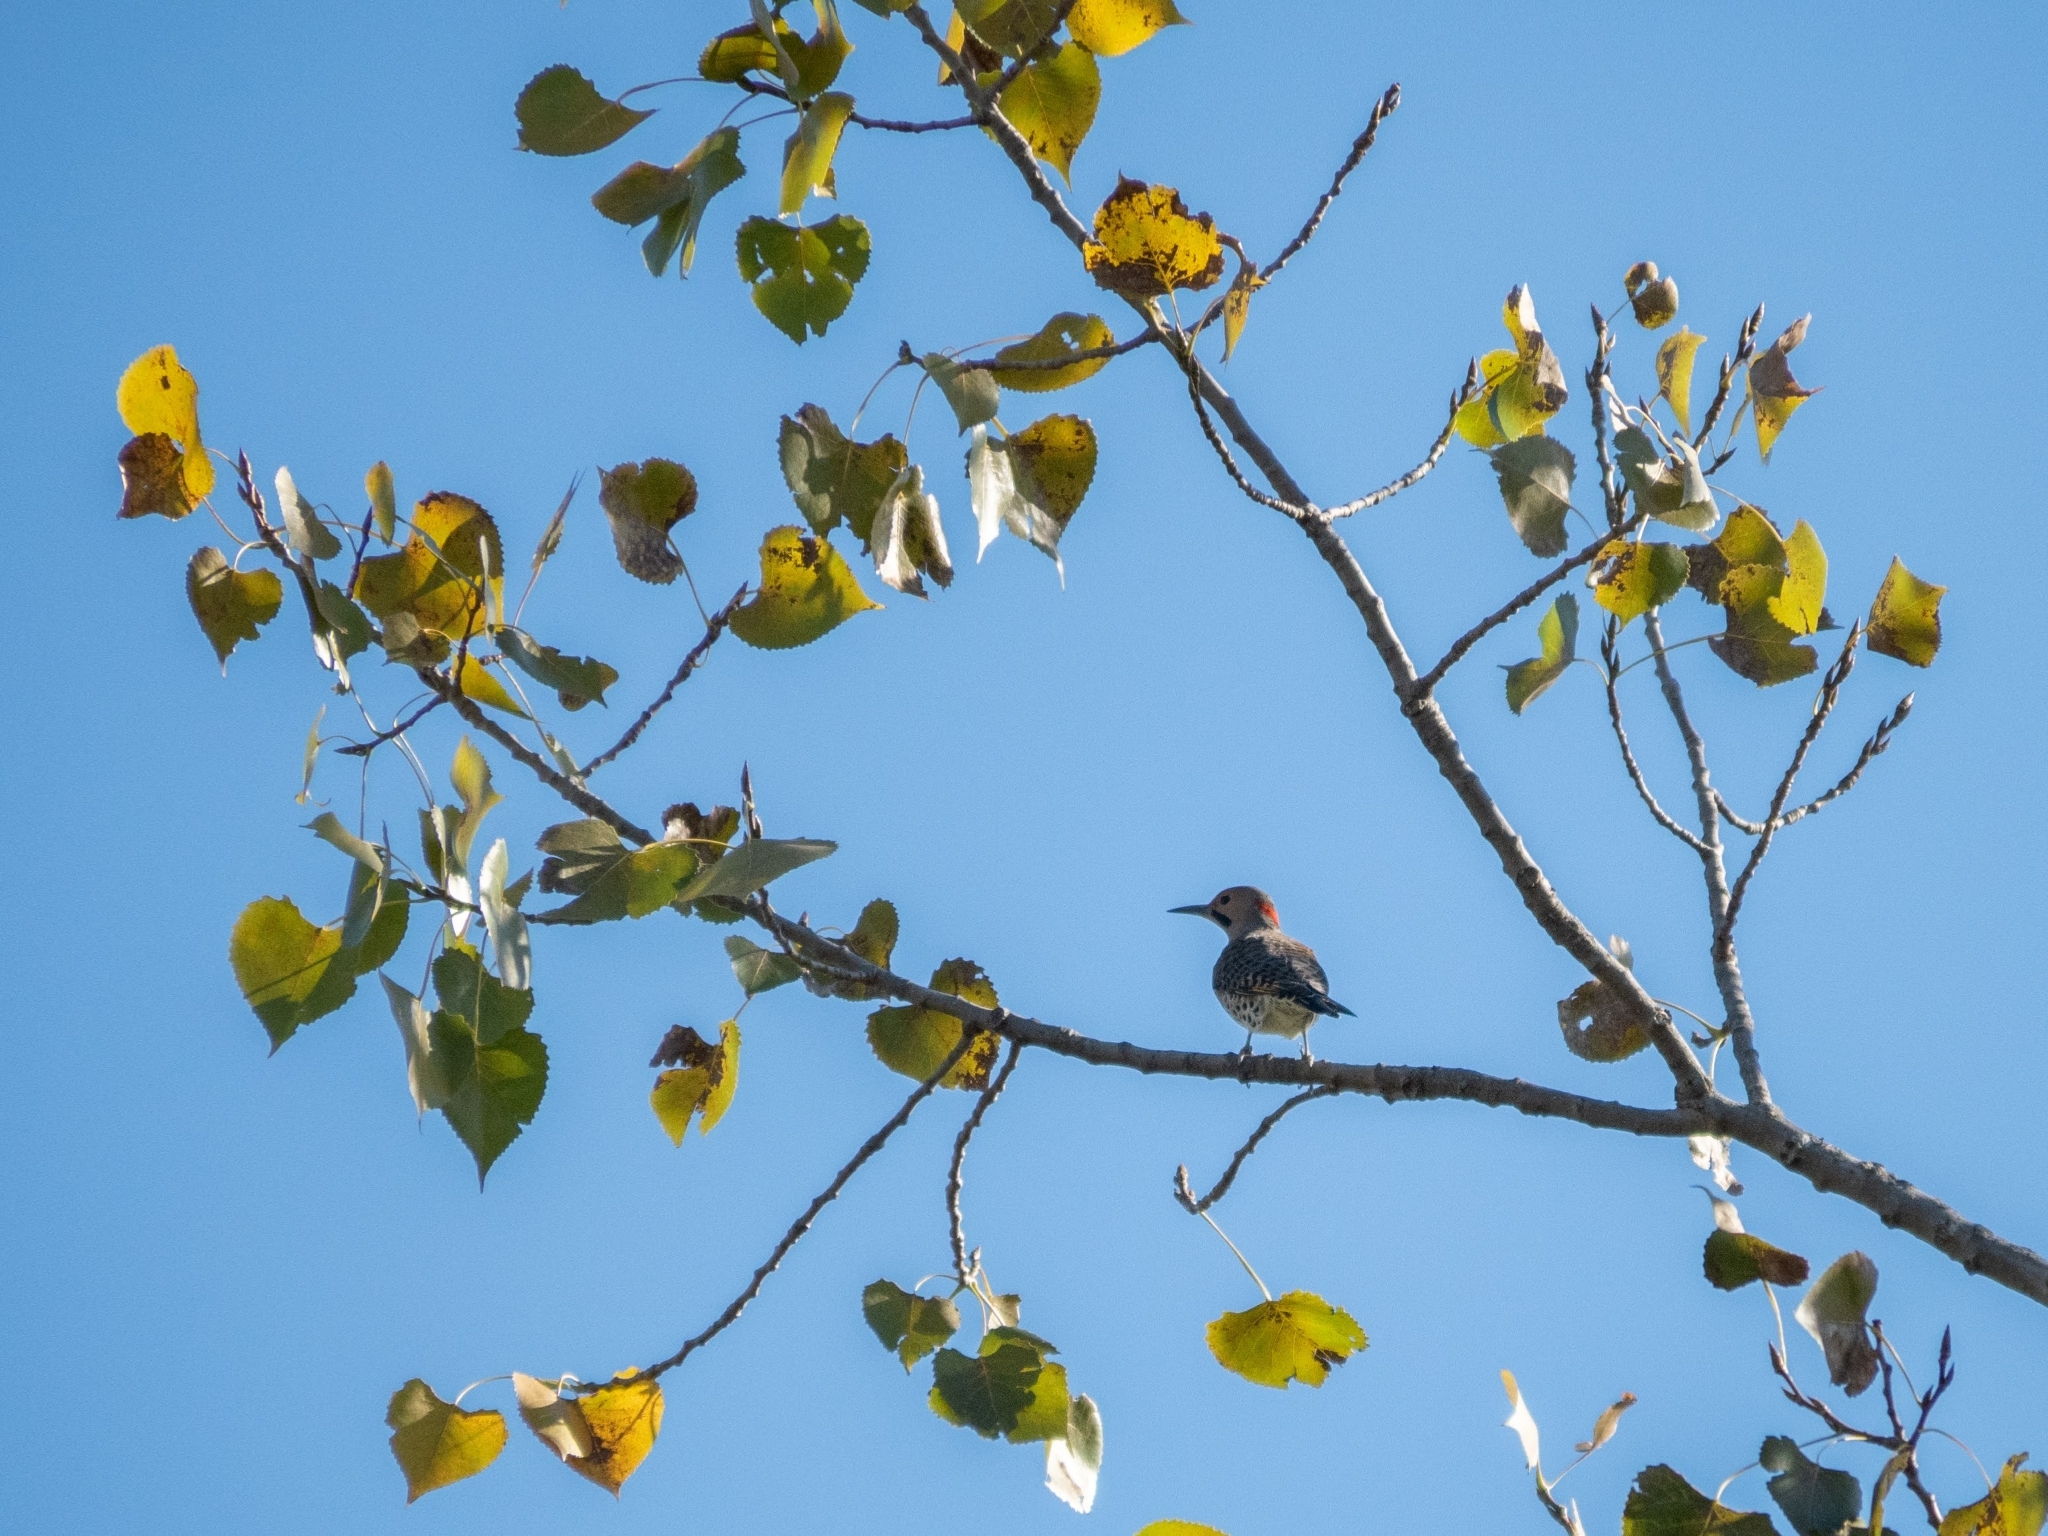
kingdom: Animalia
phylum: Chordata
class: Aves
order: Piciformes
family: Picidae
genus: Colaptes
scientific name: Colaptes auratus
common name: Northern flicker
